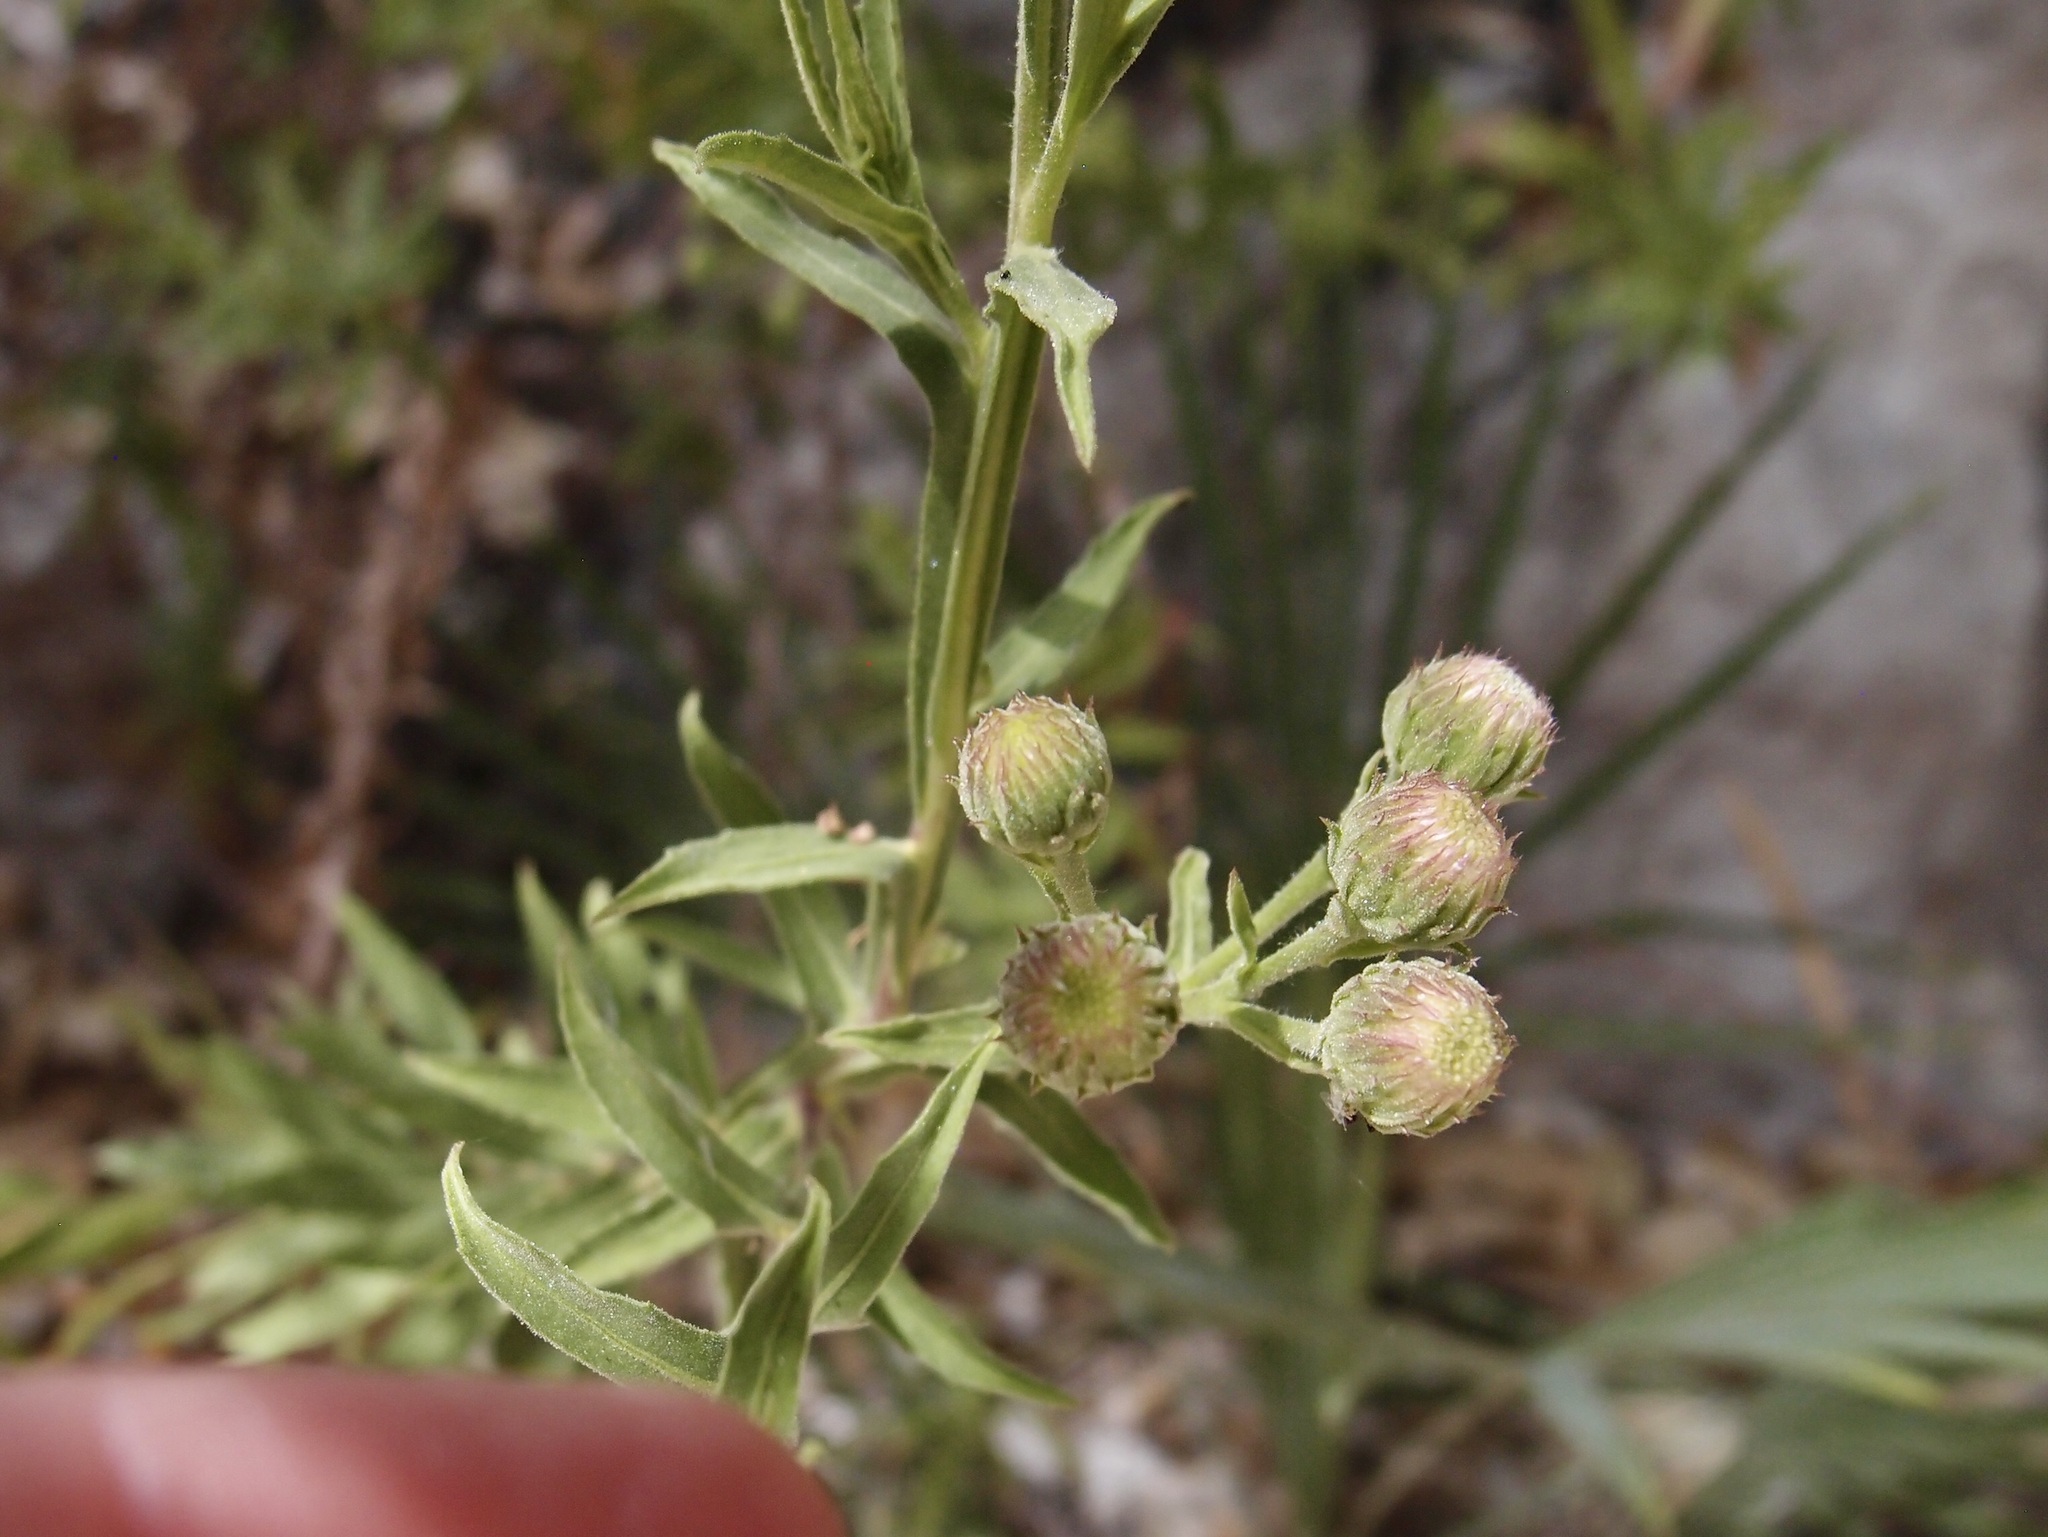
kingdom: Plantae
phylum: Tracheophyta
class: Magnoliopsida
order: Asterales
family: Asteraceae
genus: Pluchea
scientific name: Pluchea salicifolia
